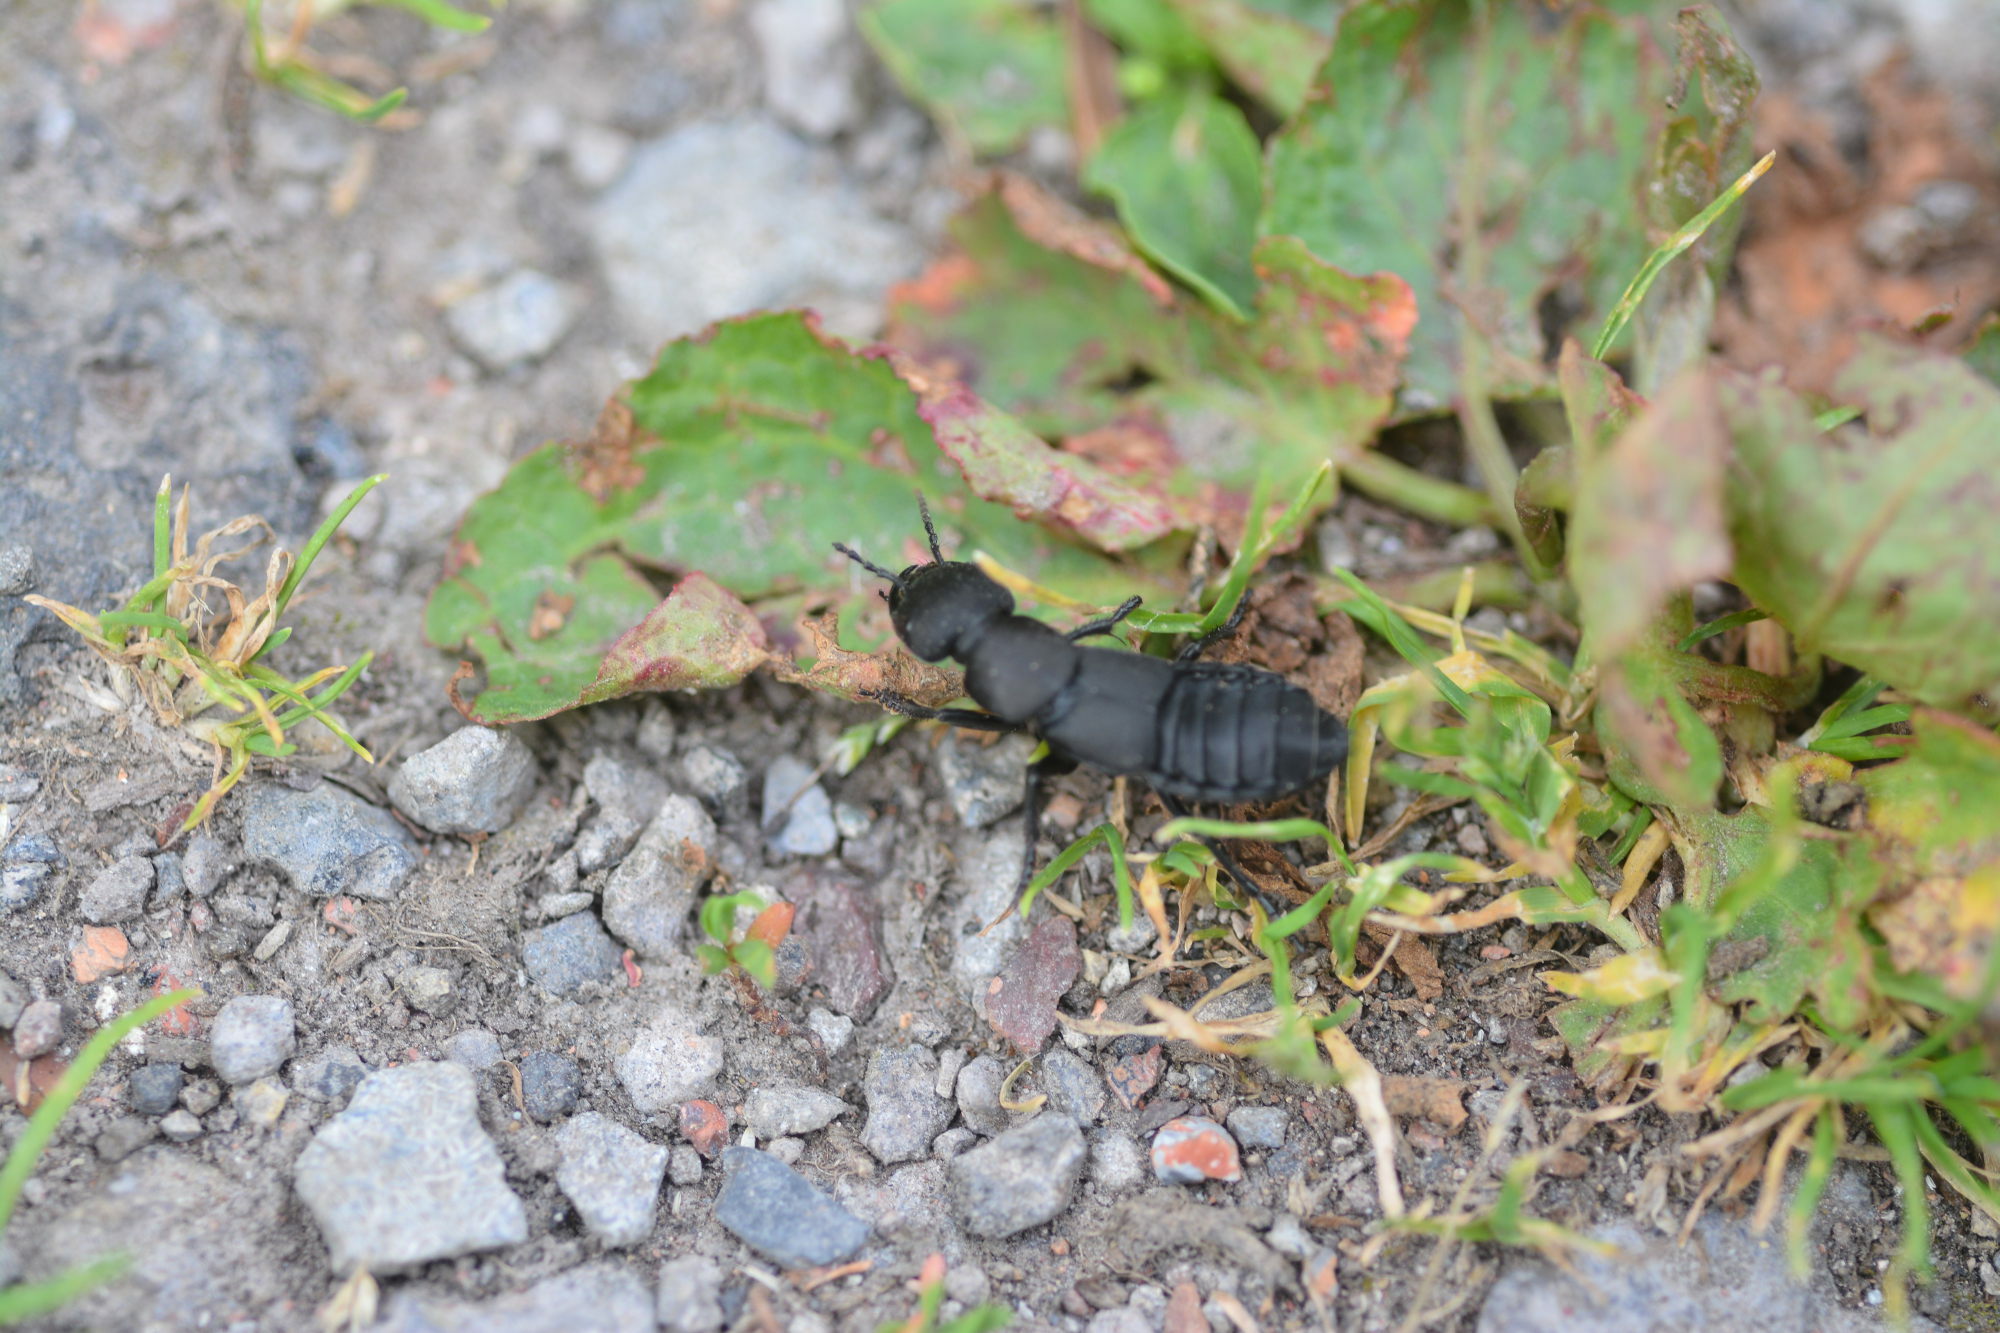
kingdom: Animalia
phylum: Arthropoda
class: Insecta
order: Coleoptera
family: Staphylinidae
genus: Ocypus
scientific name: Ocypus olens
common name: Devil's coach-horse
